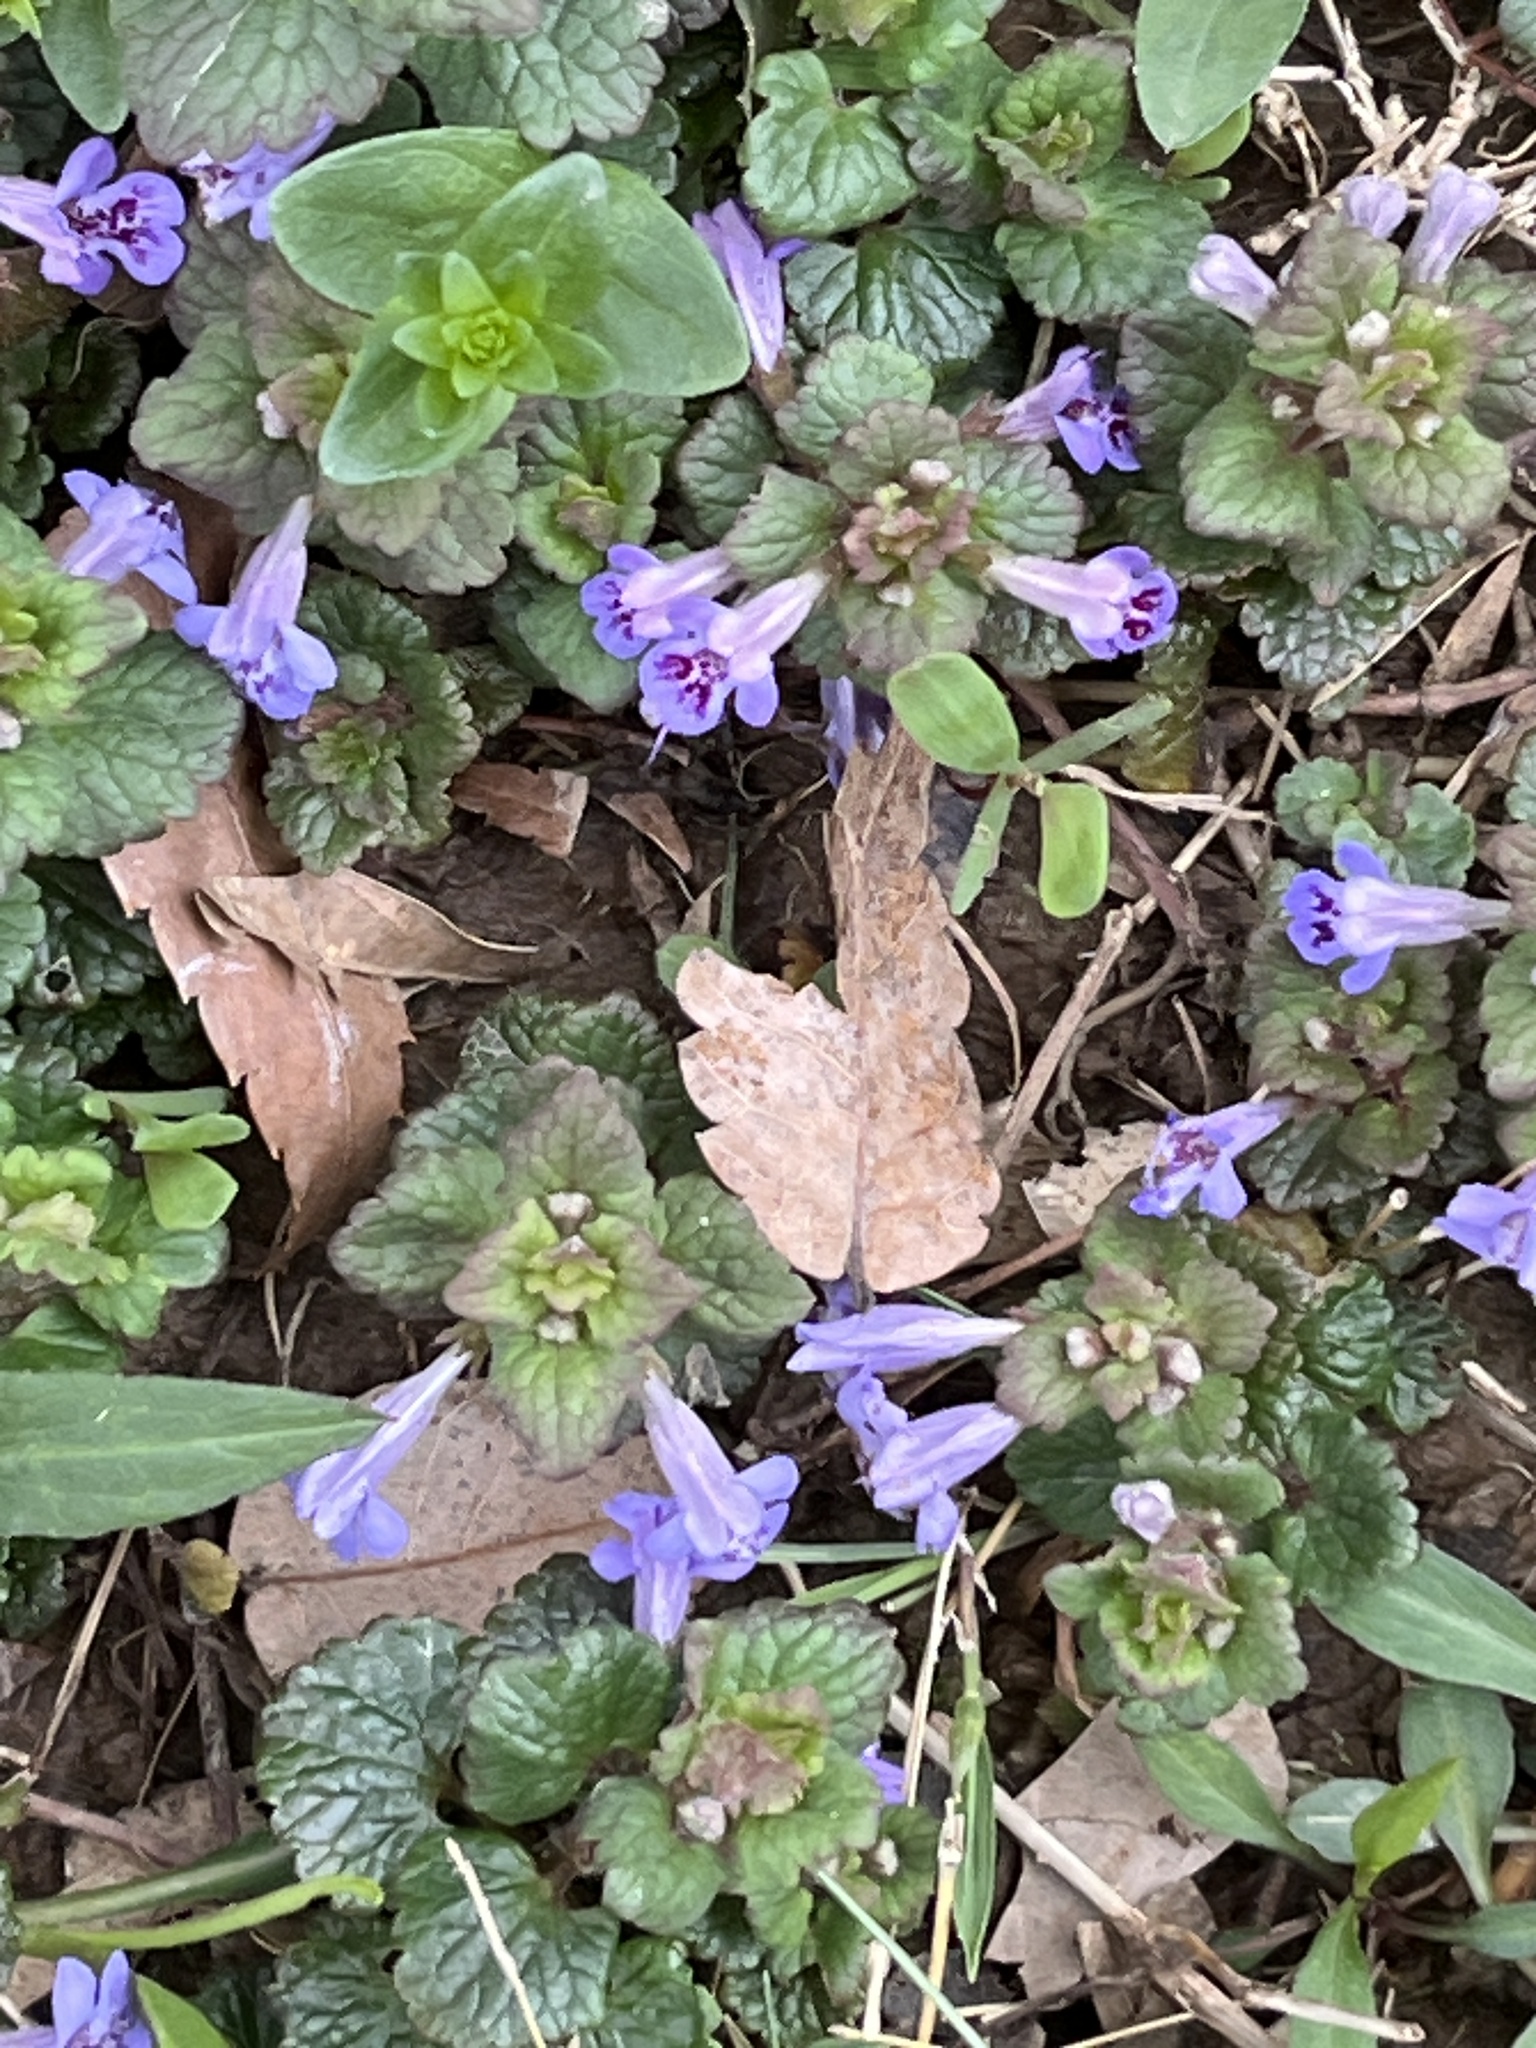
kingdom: Plantae
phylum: Tracheophyta
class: Magnoliopsida
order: Lamiales
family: Lamiaceae
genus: Glechoma
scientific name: Glechoma hederacea
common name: Ground ivy
